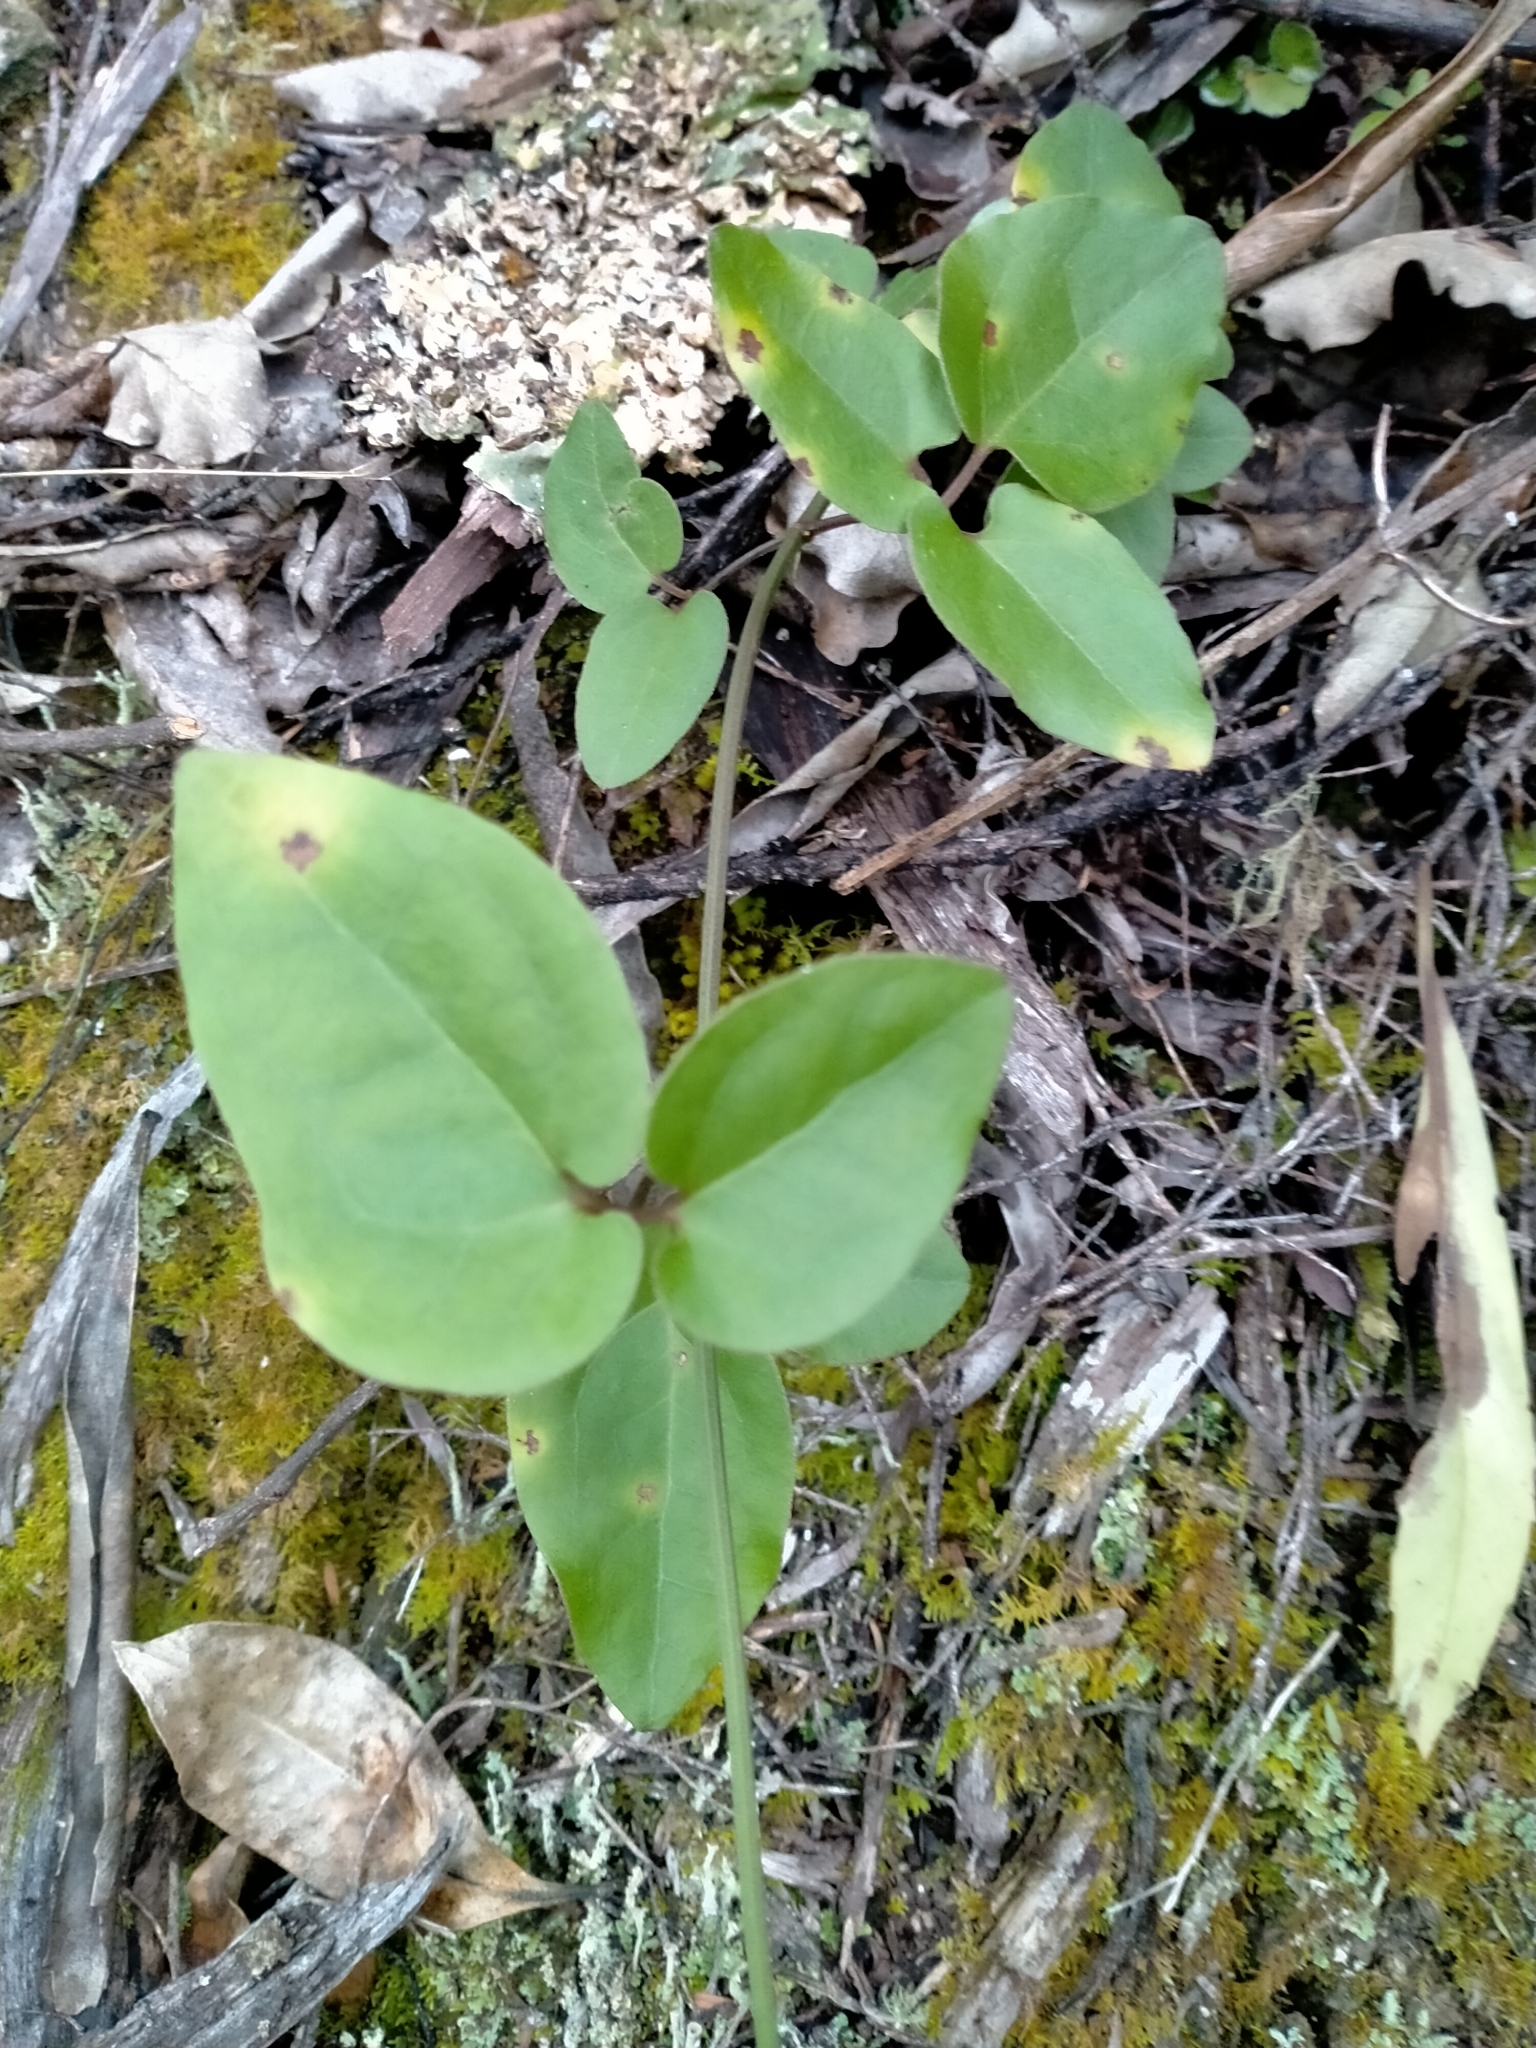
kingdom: Plantae
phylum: Tracheophyta
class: Magnoliopsida
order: Ranunculales
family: Ranunculaceae
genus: Clematis
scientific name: Clematis paniculata
